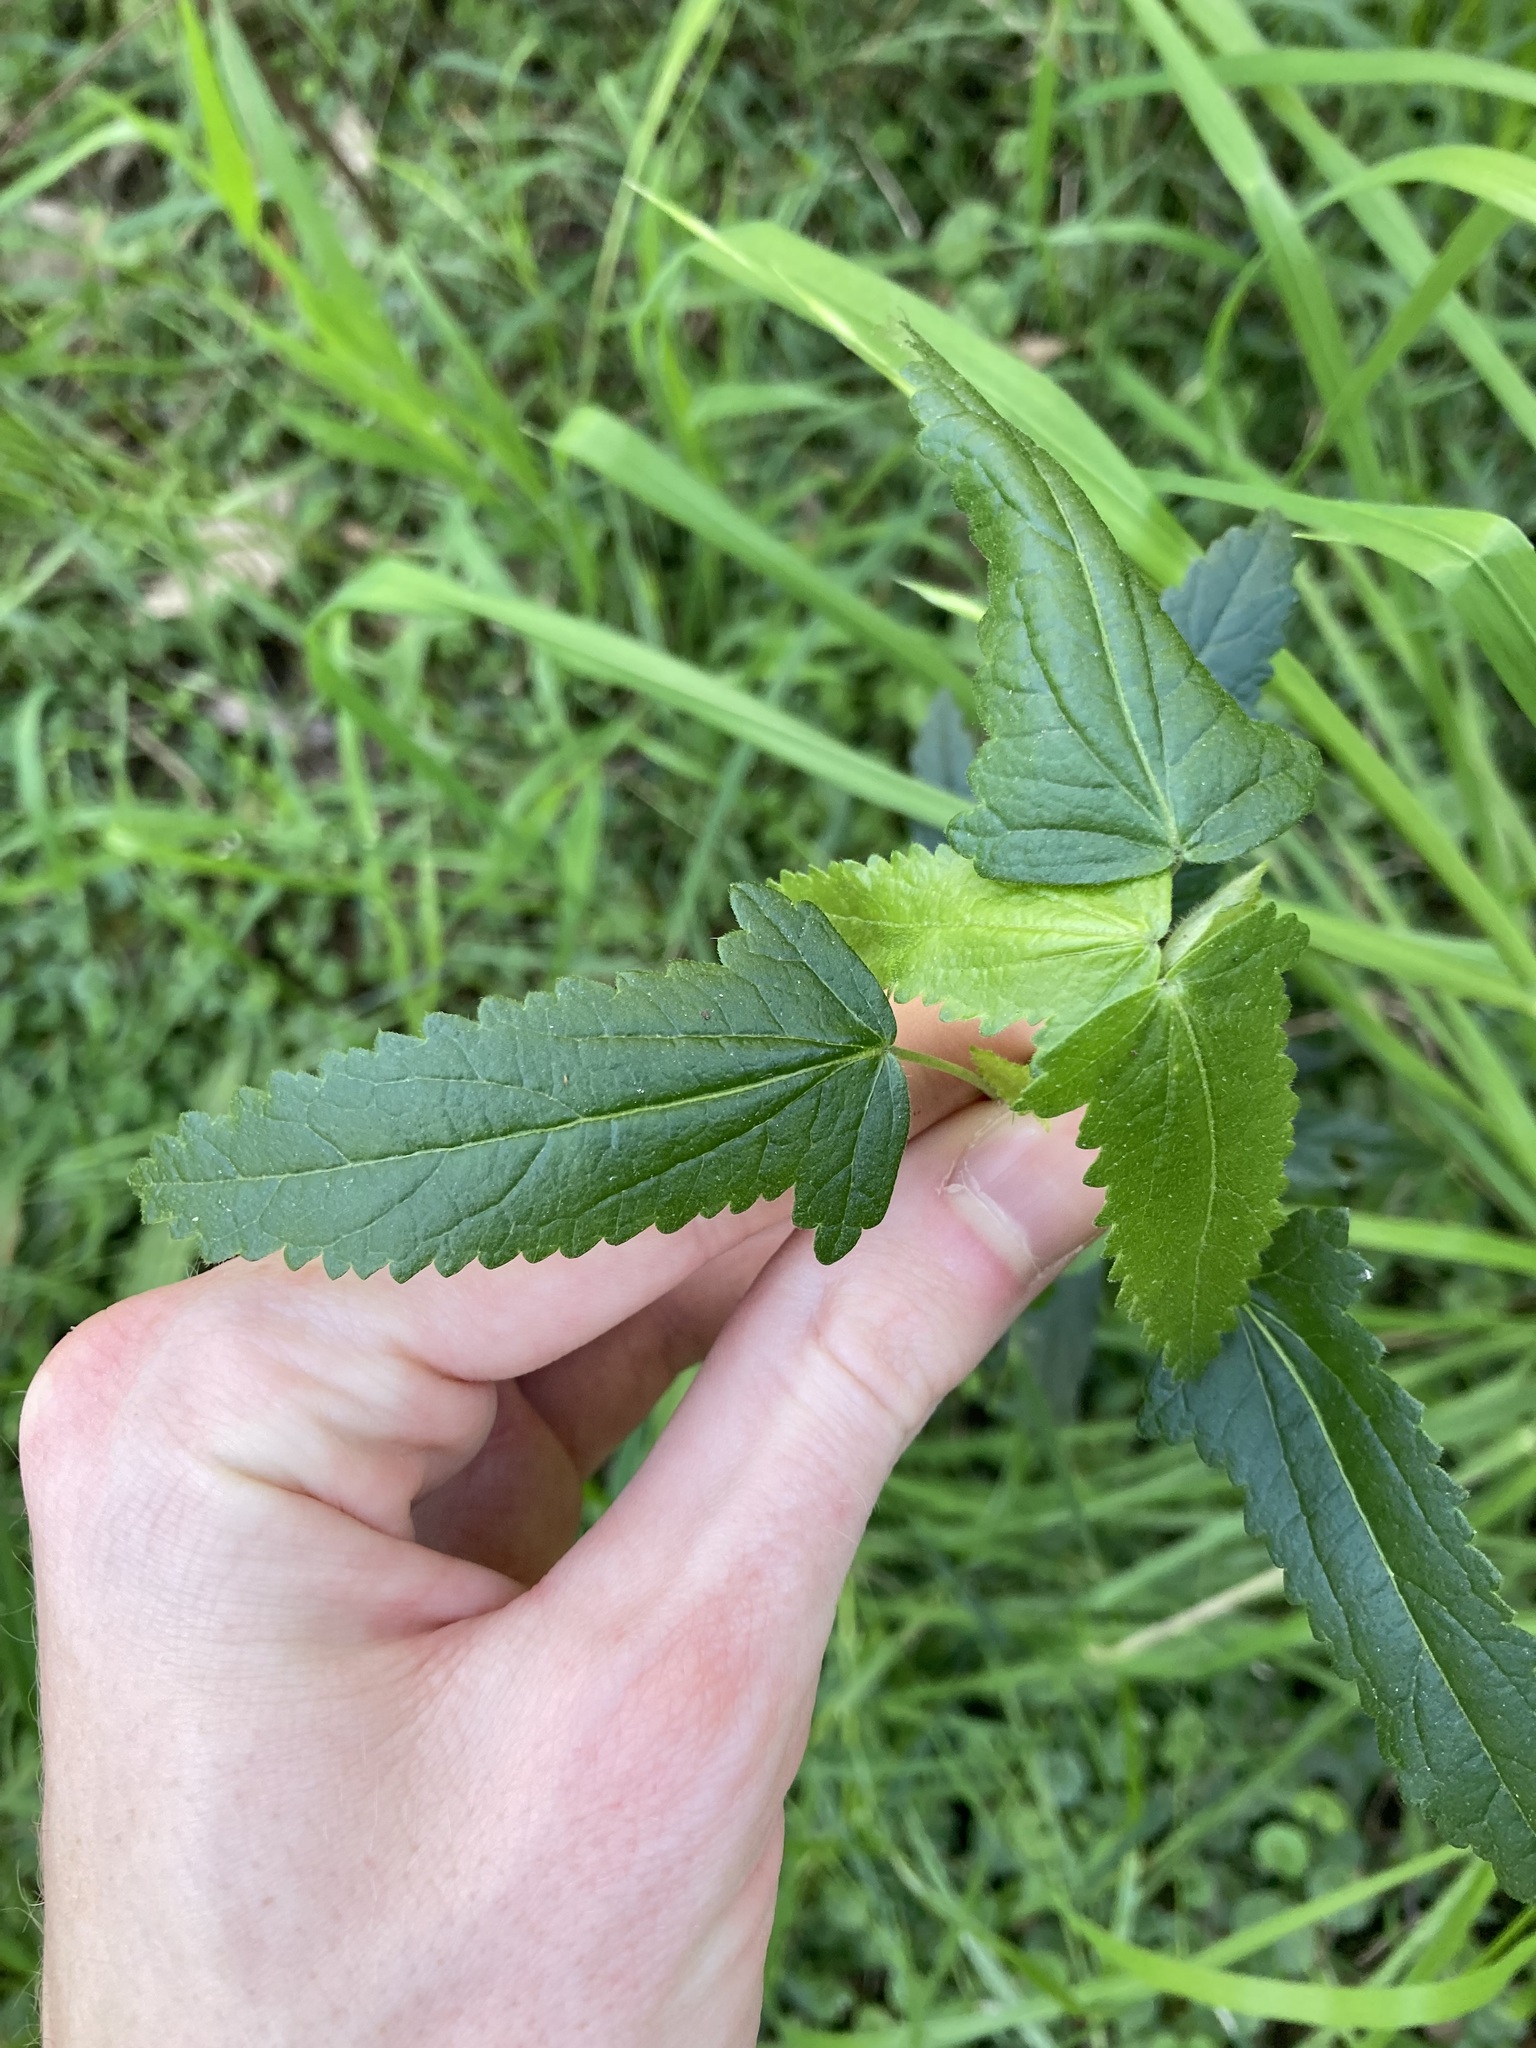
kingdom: Plantae
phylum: Tracheophyta
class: Magnoliopsida
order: Malvales
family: Malvaceae
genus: Pavonia
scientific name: Pavonia hastata
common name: Spearleaf swampmallow
